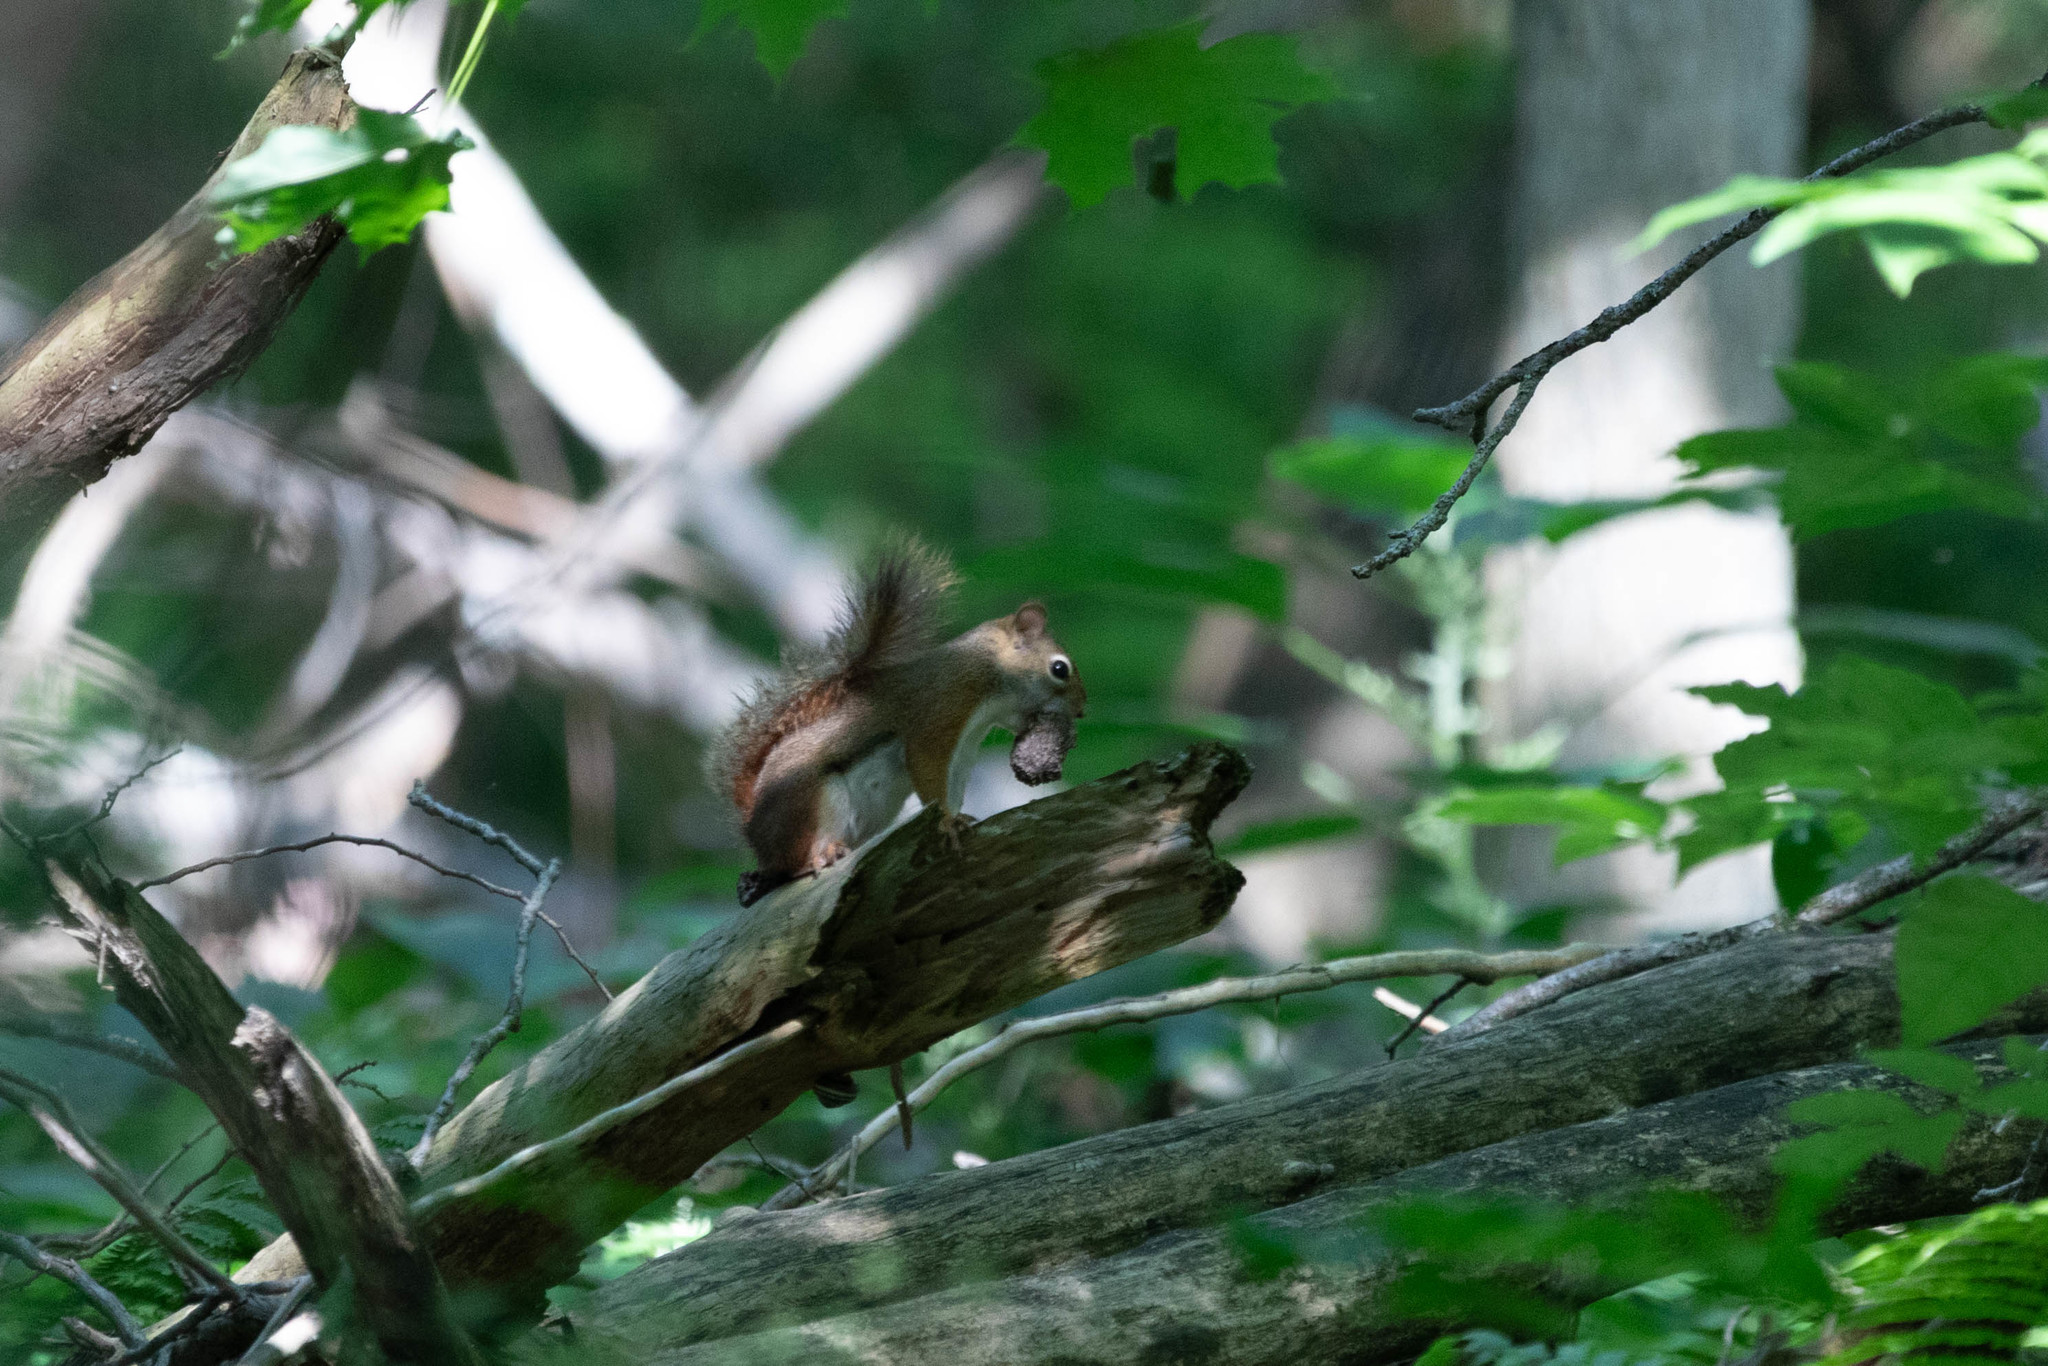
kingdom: Animalia
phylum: Chordata
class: Mammalia
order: Rodentia
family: Sciuridae
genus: Tamiasciurus
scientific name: Tamiasciurus hudsonicus
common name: Red squirrel
